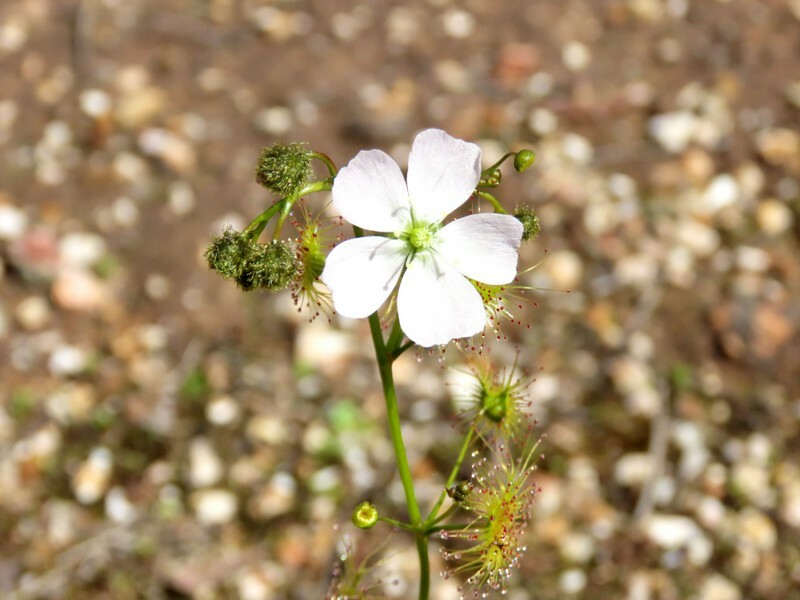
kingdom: Plantae
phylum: Tracheophyta
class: Magnoliopsida
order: Caryophyllales
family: Droseraceae
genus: Drosera
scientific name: Drosera gunniana
